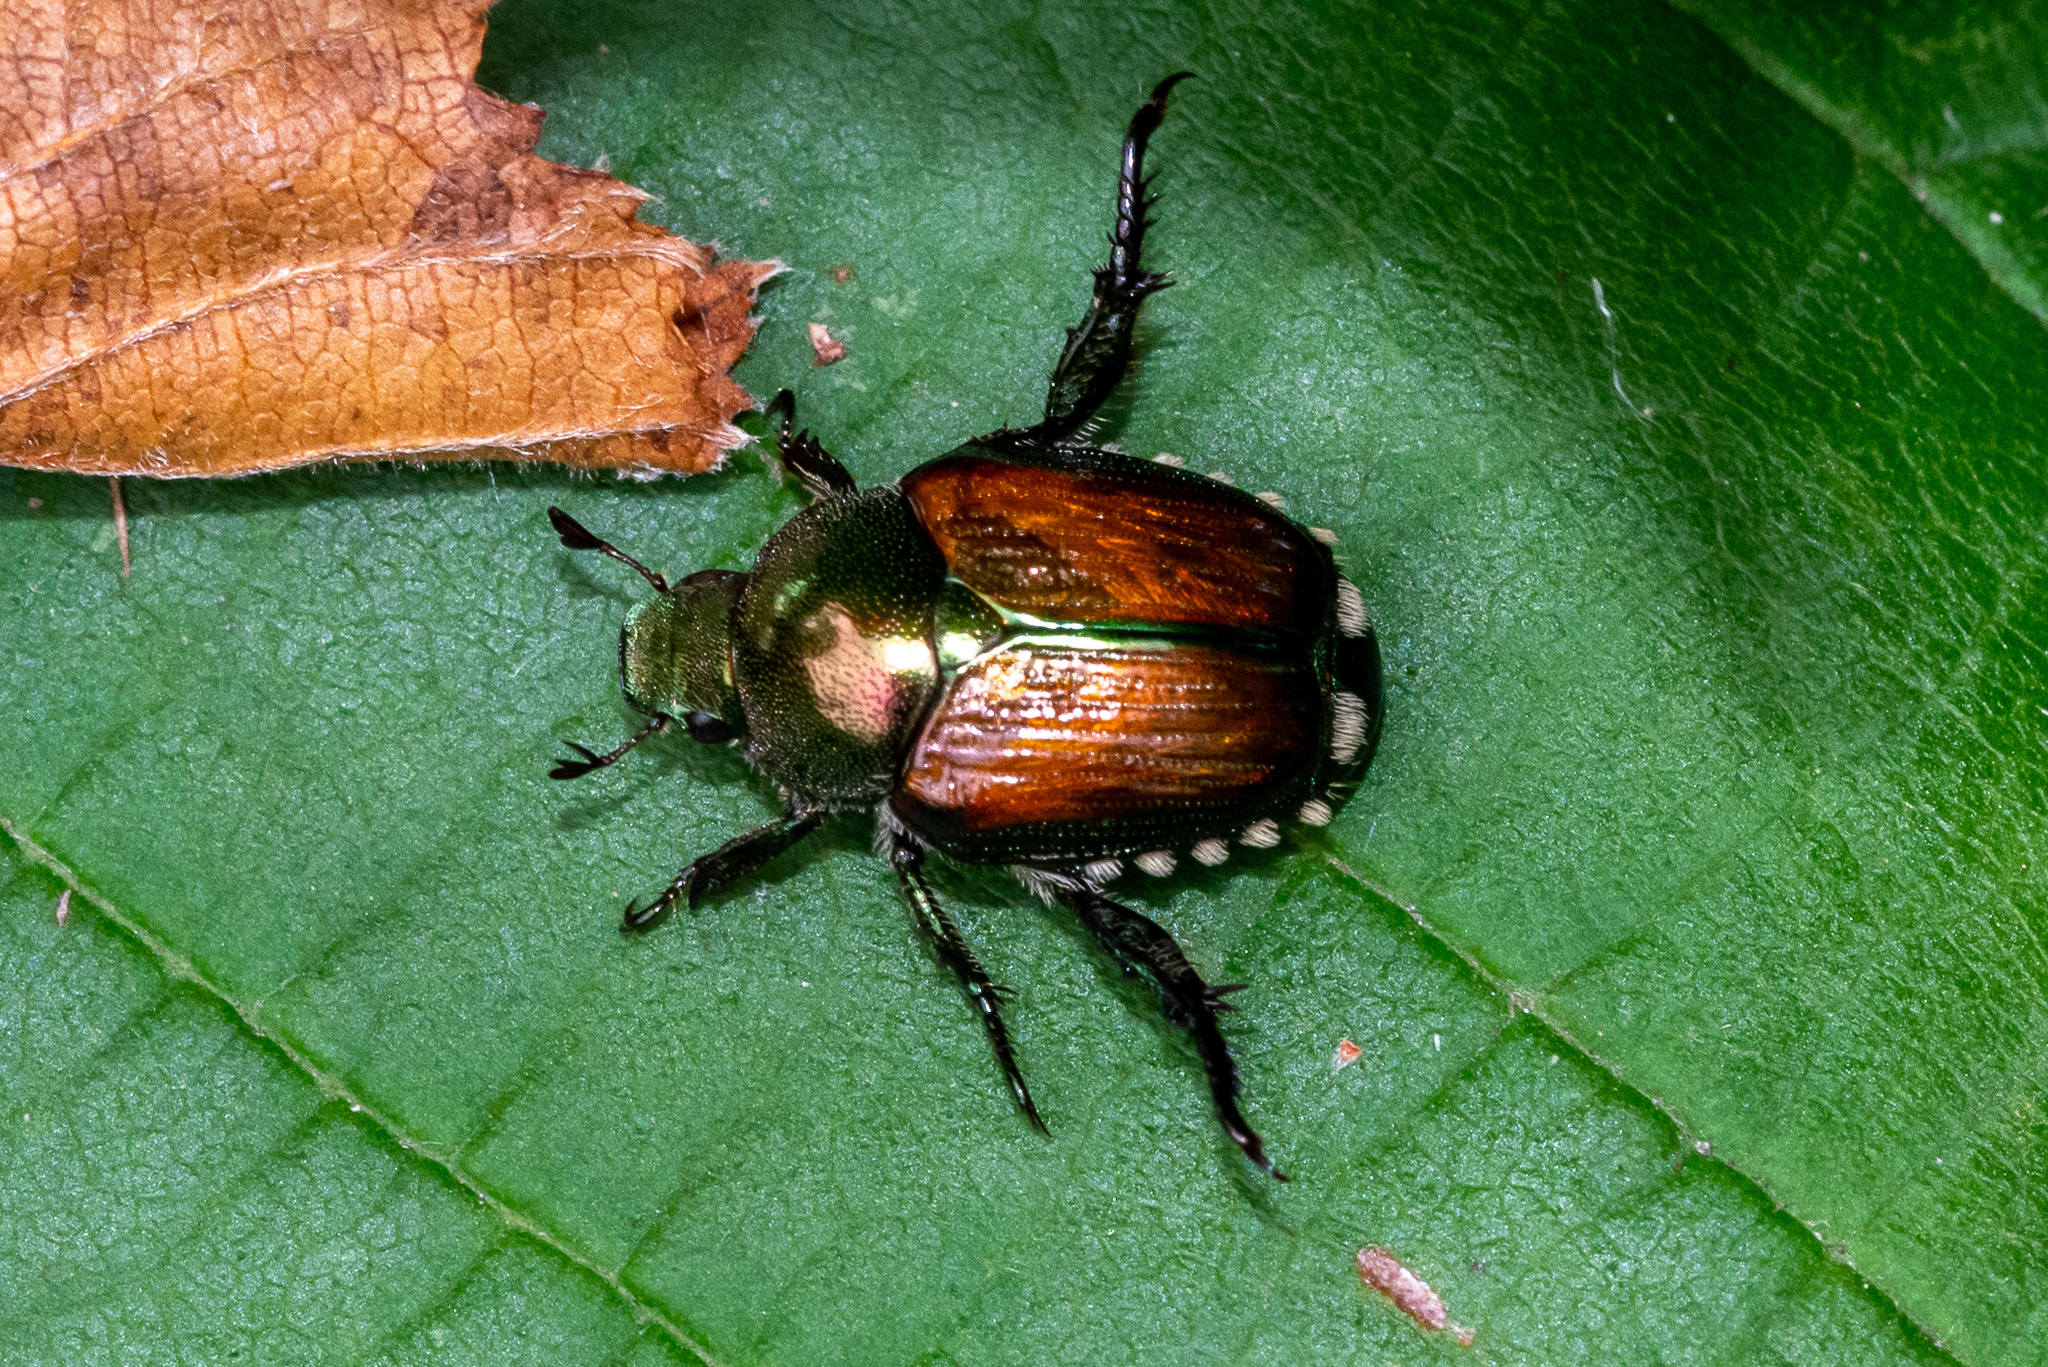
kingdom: Animalia
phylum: Arthropoda
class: Insecta
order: Coleoptera
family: Scarabaeidae
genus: Popillia
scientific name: Popillia japonica
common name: Japanese beetle
